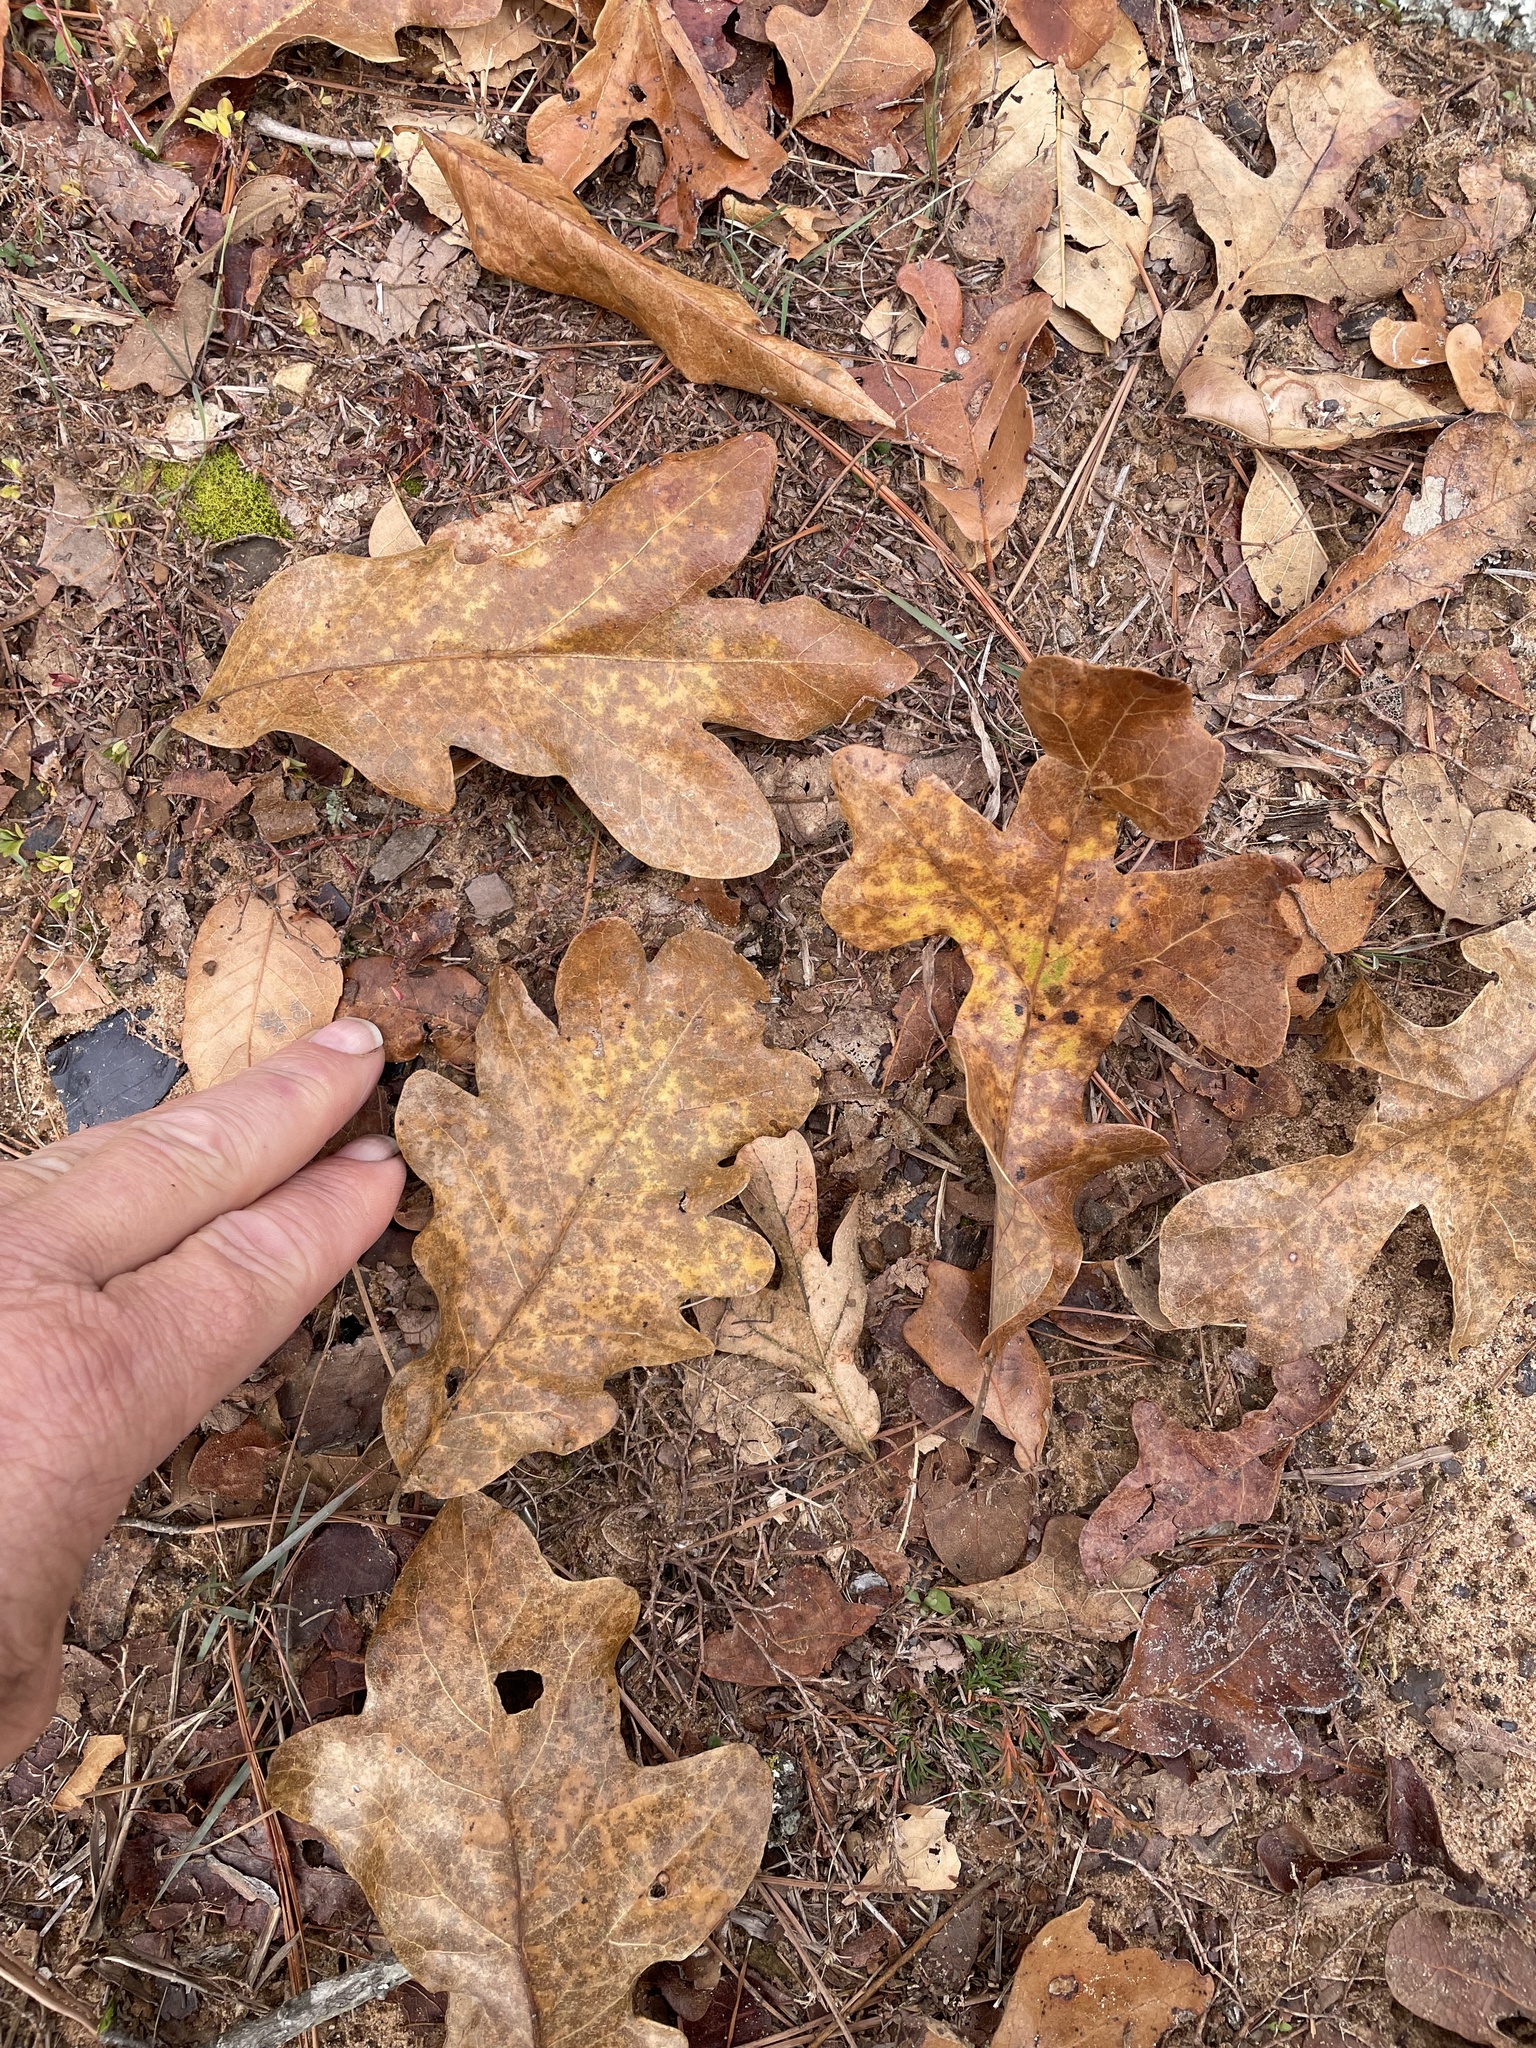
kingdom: Plantae
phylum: Tracheophyta
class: Magnoliopsida
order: Fagales
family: Fagaceae
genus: Quercus
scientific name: Quercus stellata
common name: Post oak
